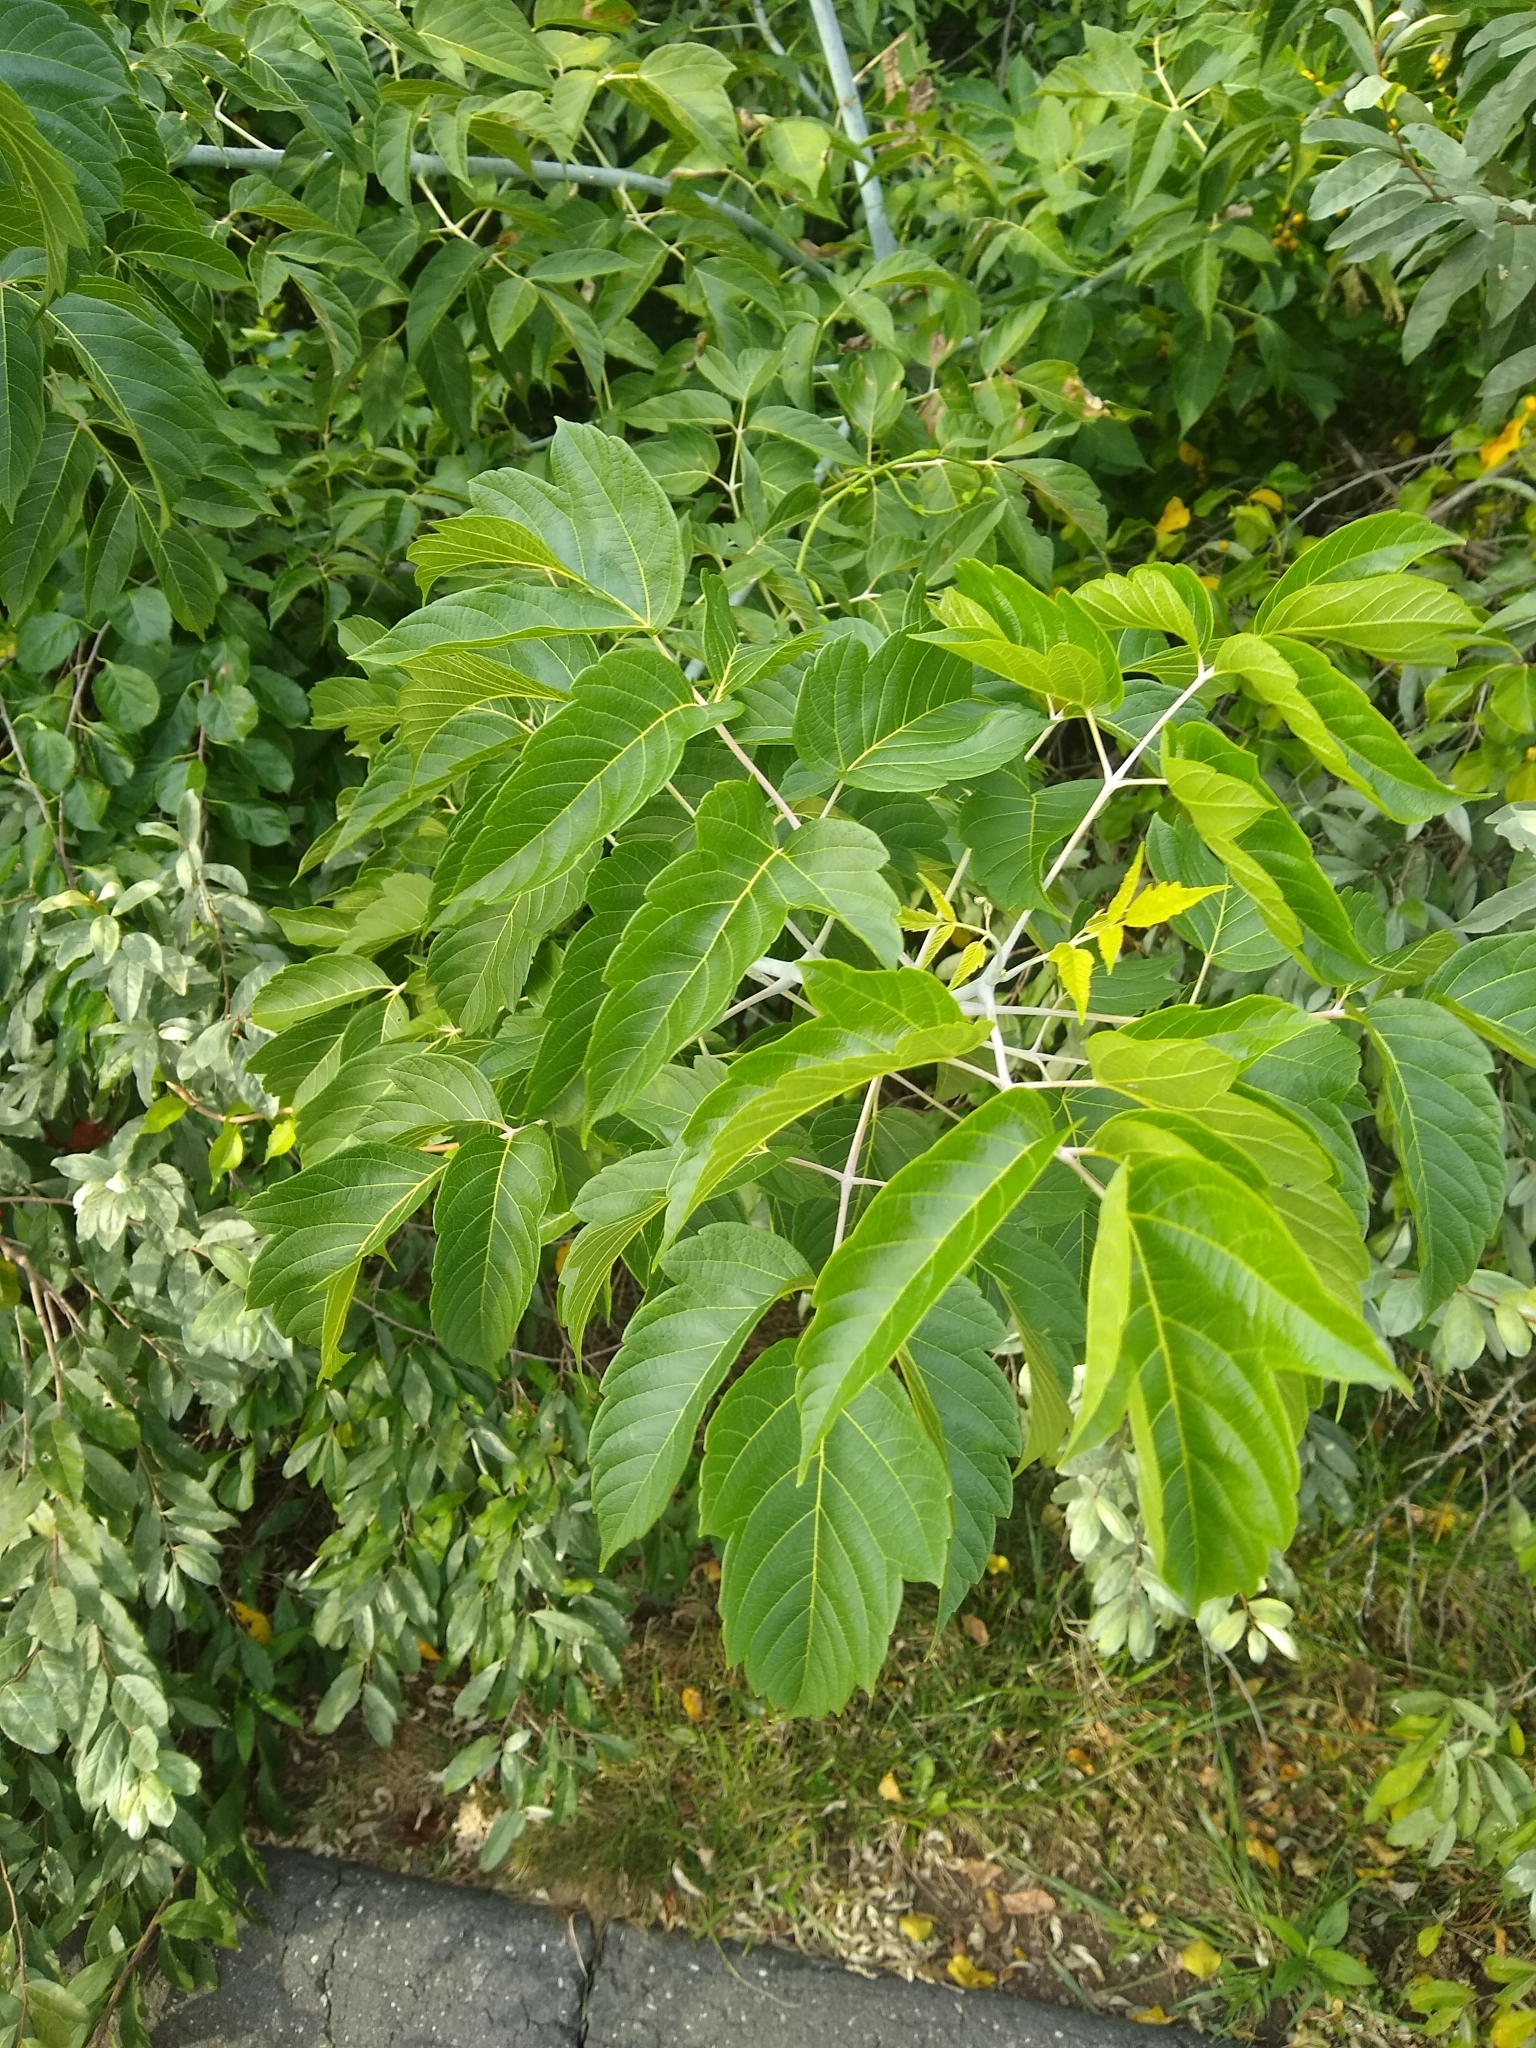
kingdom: Plantae
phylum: Tracheophyta
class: Magnoliopsida
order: Sapindales
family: Sapindaceae
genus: Acer
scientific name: Acer negundo
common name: Ashleaf maple
